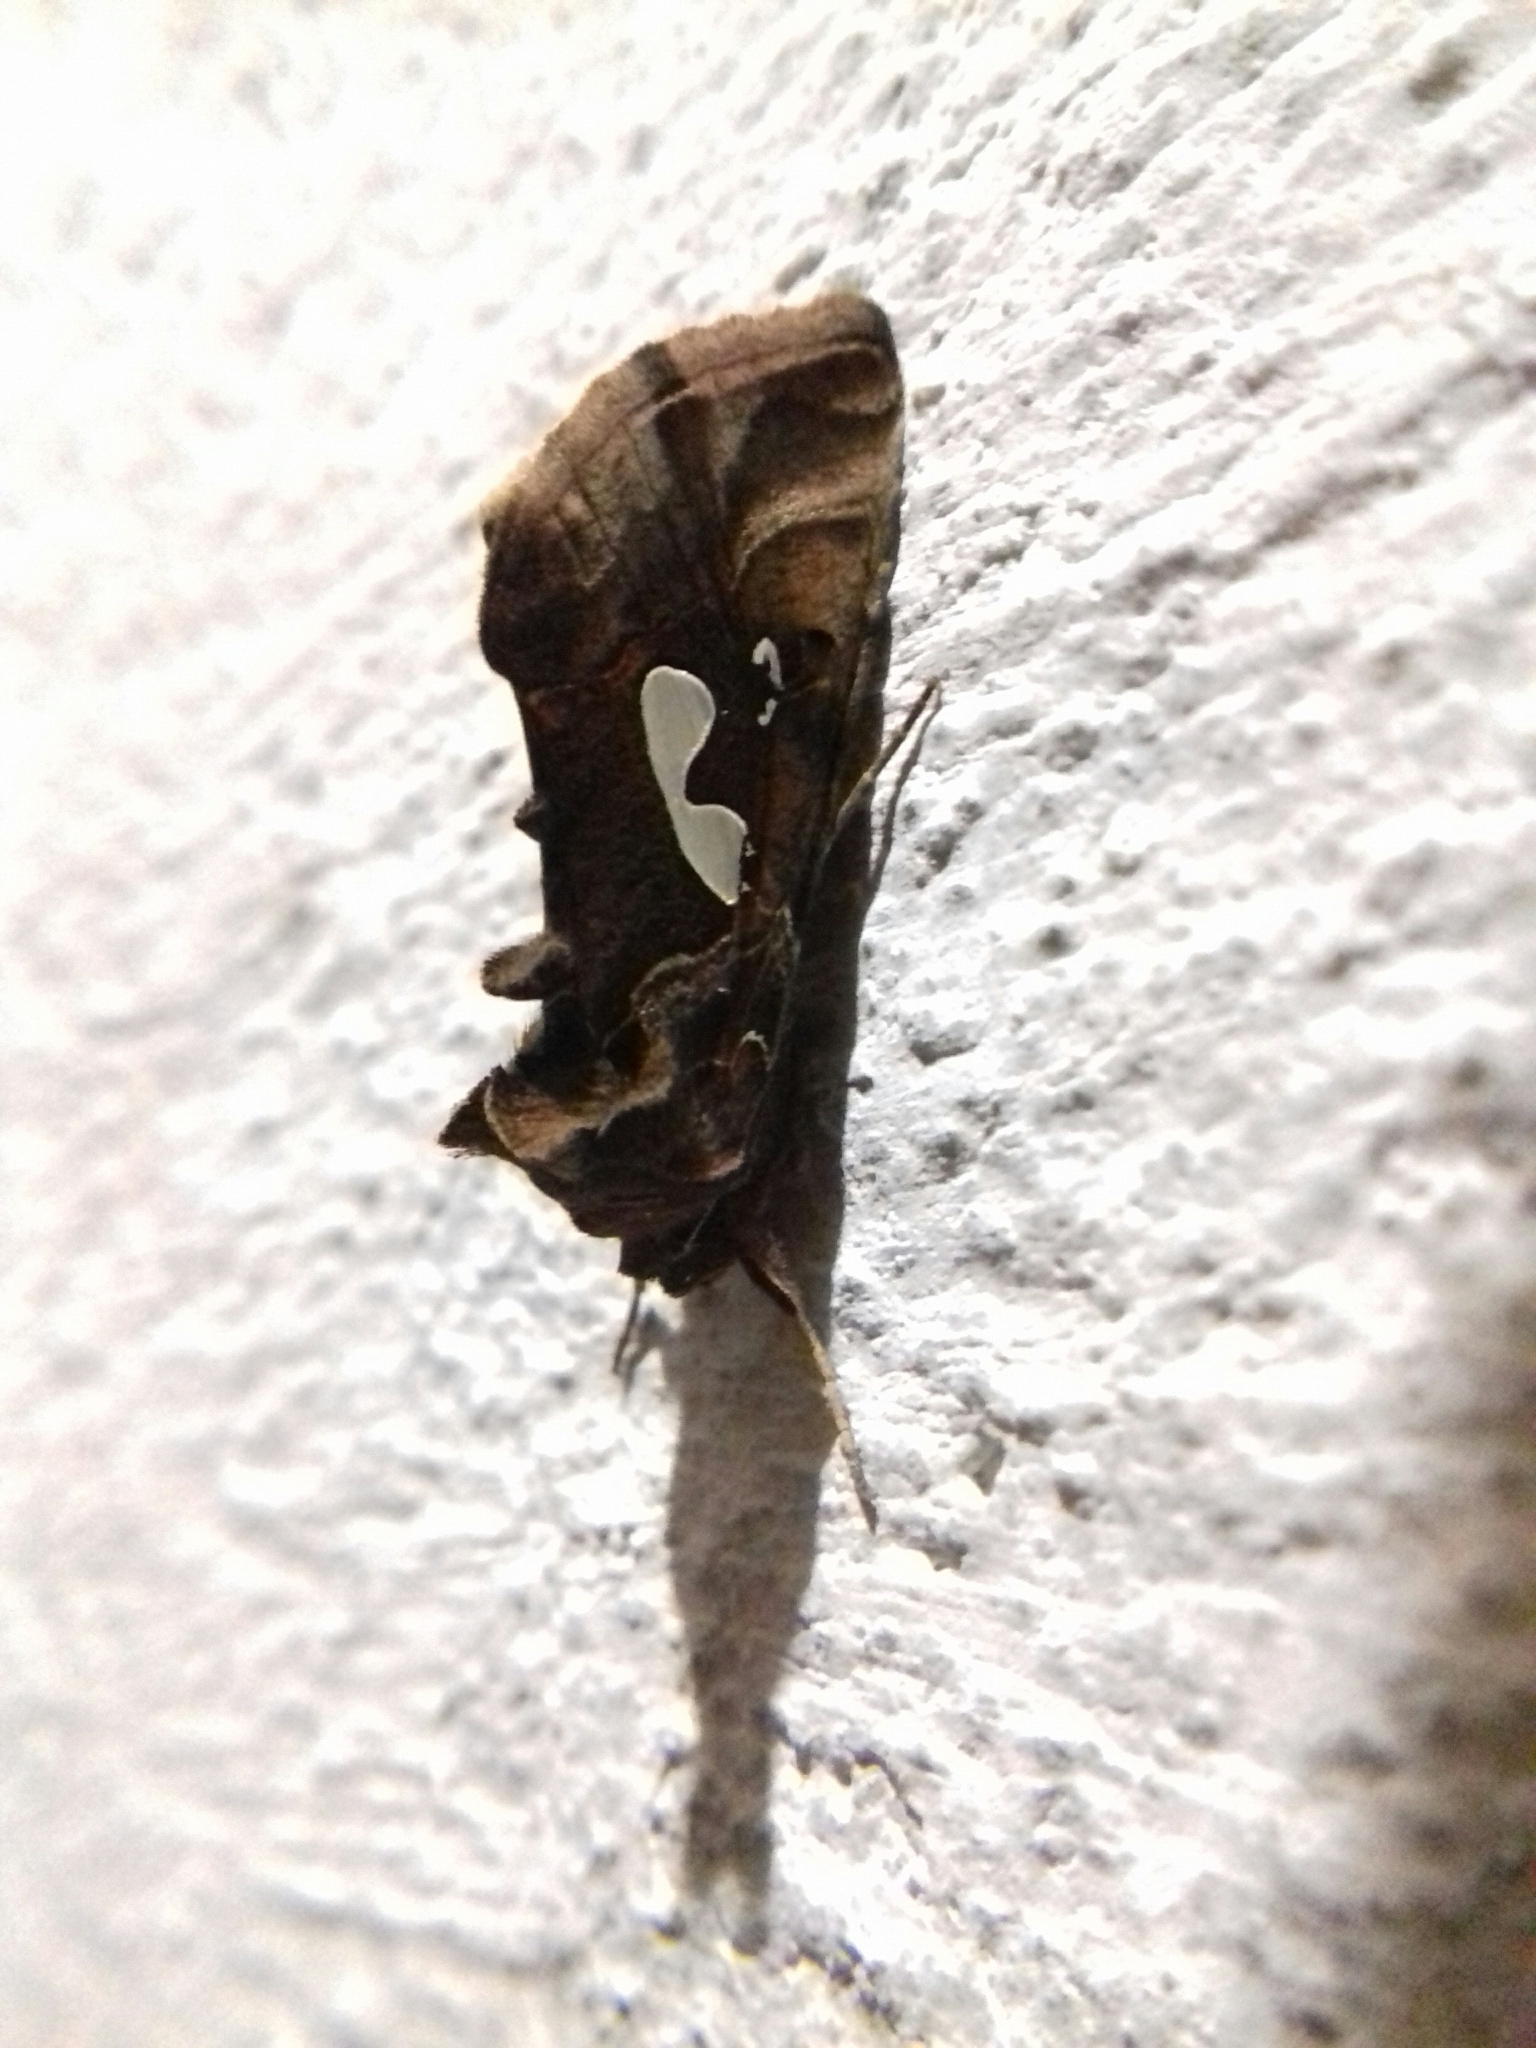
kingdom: Animalia
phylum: Arthropoda
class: Insecta
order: Lepidoptera
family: Noctuidae
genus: Megalographa
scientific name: Megalographa biloba
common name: Cutworm
